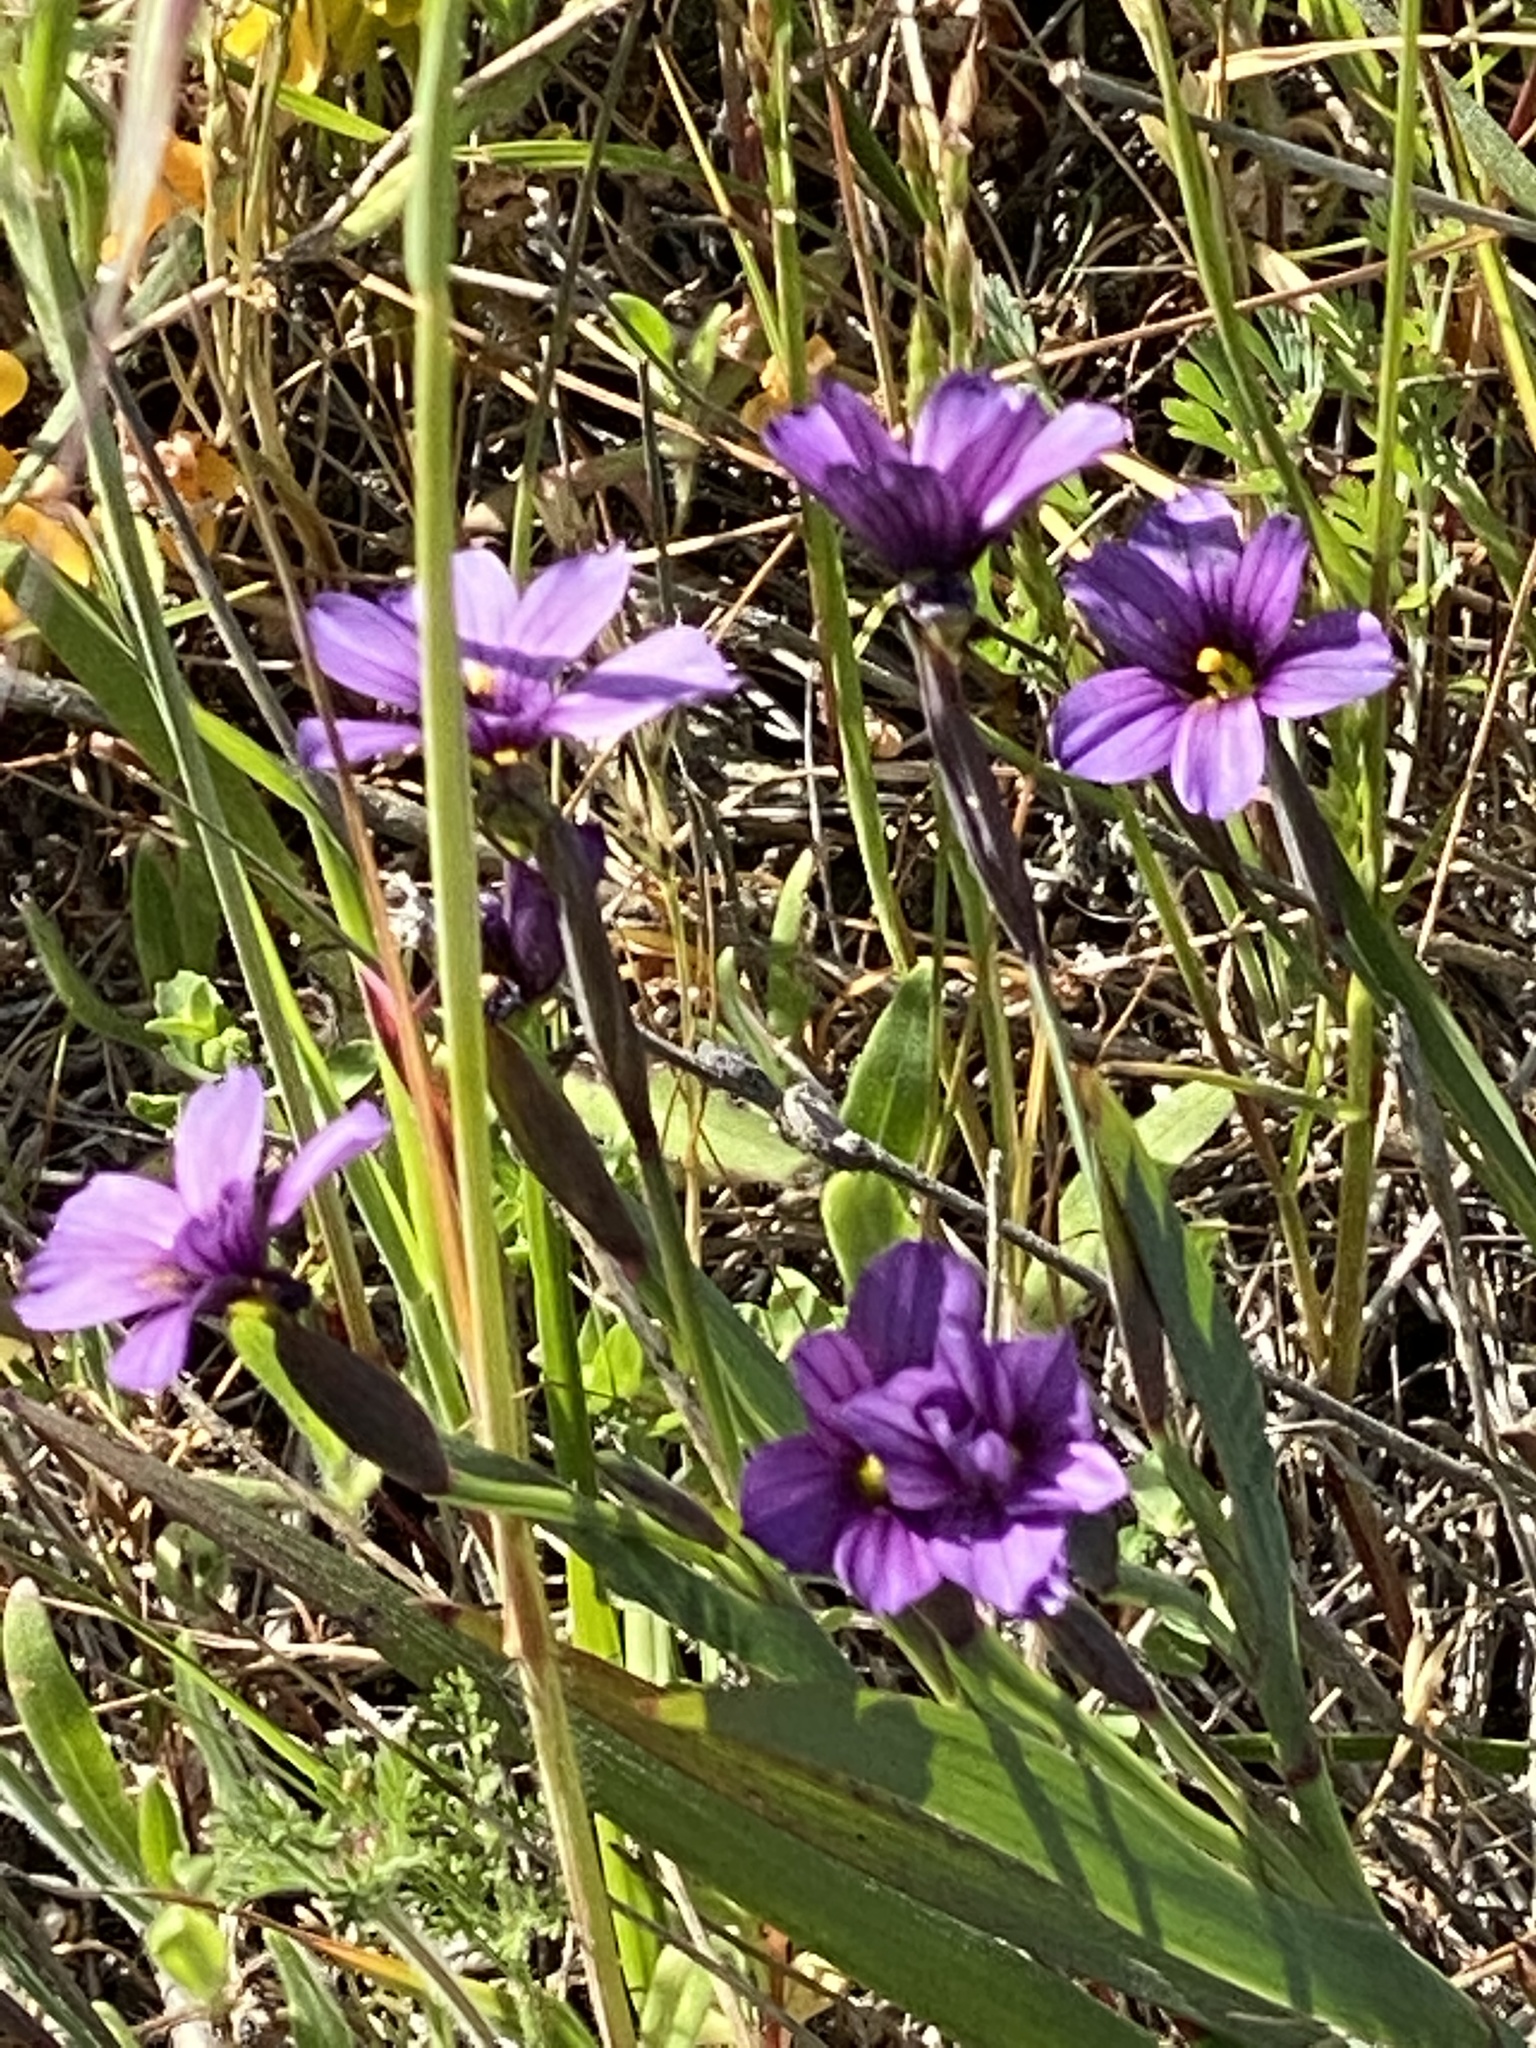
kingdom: Plantae
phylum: Tracheophyta
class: Liliopsida
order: Asparagales
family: Iridaceae
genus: Sisyrinchium
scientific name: Sisyrinchium bellum
